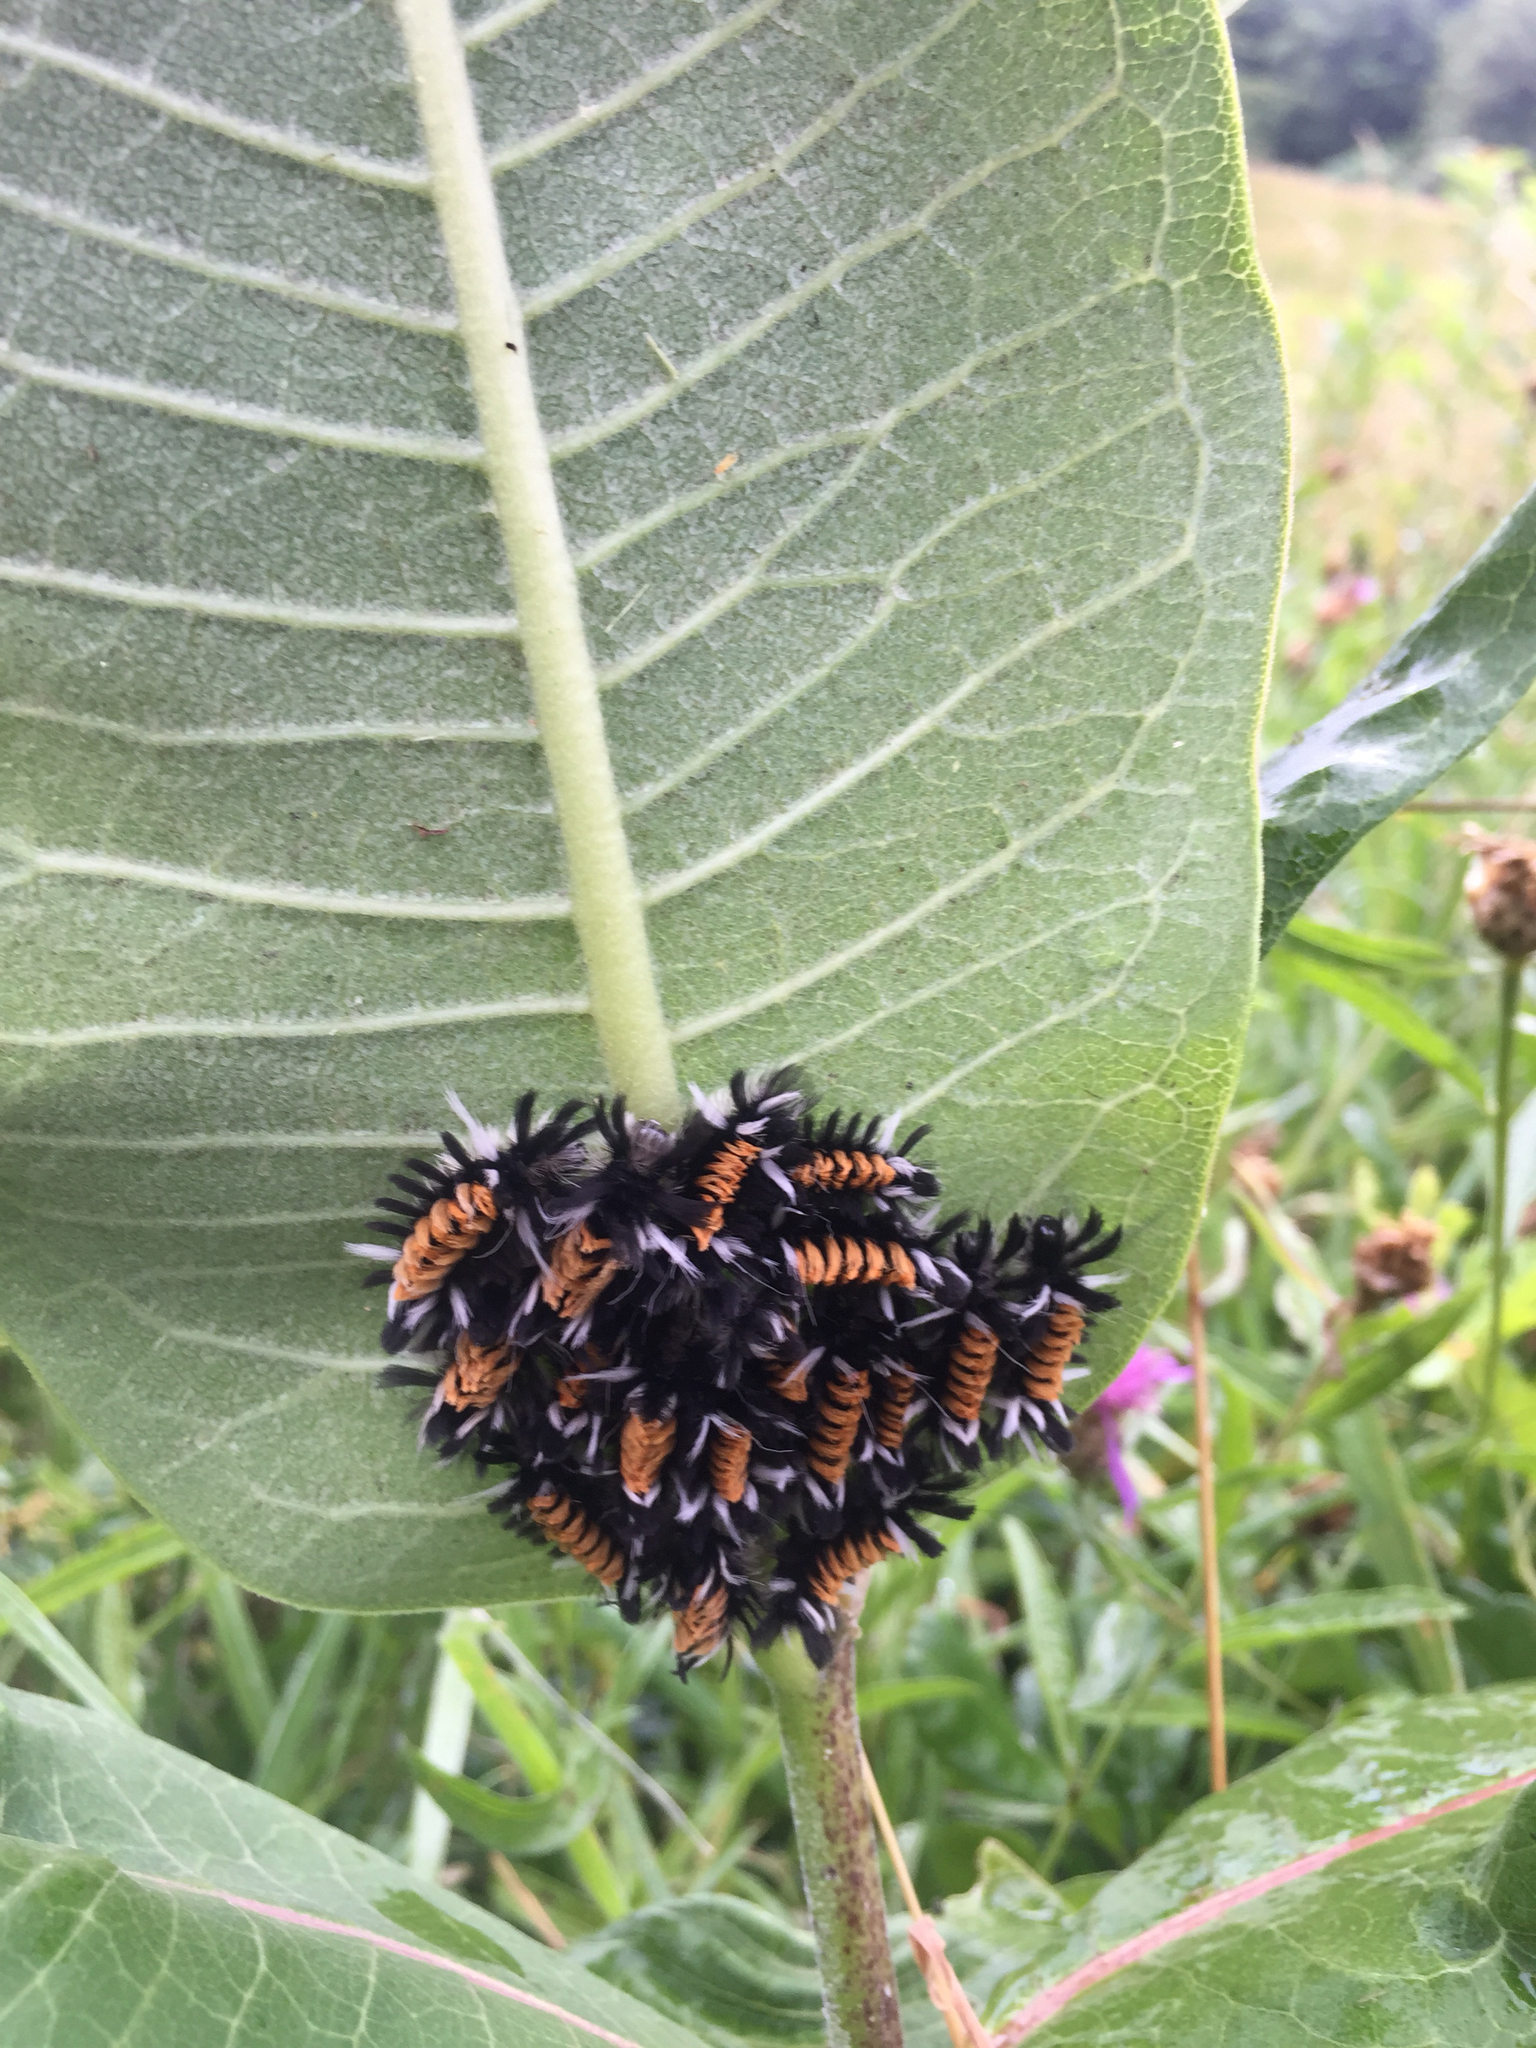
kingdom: Animalia
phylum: Arthropoda
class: Insecta
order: Lepidoptera
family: Erebidae
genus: Euchaetes
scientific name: Euchaetes egle
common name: Milkweed tussock moth
